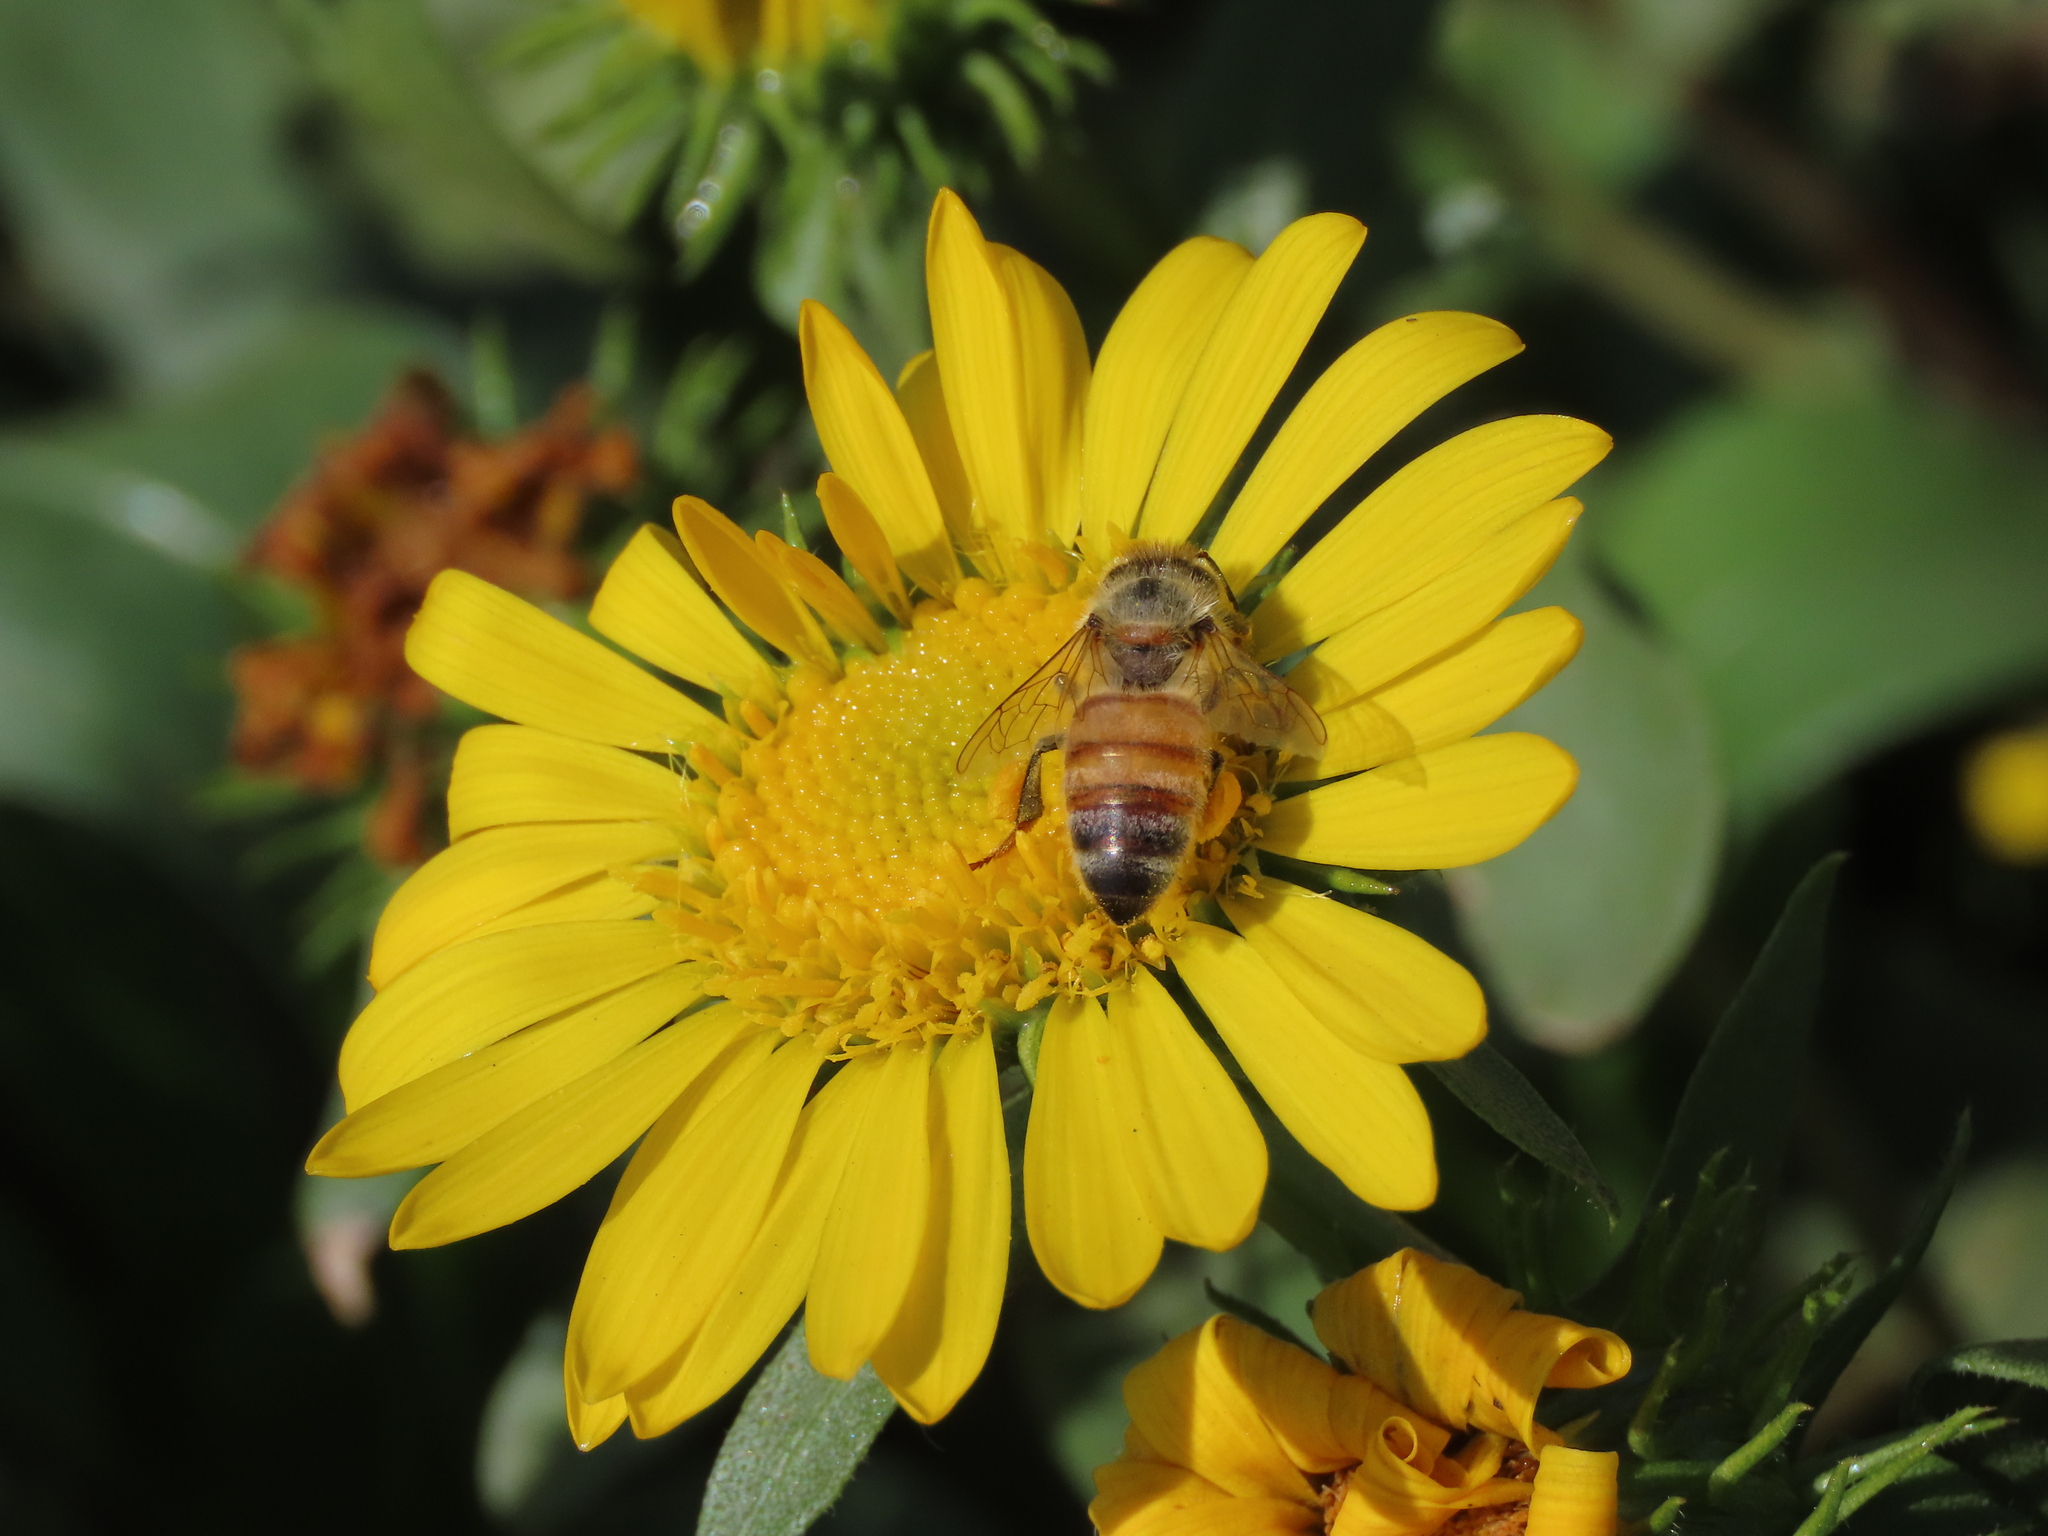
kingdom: Animalia
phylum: Arthropoda
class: Insecta
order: Hymenoptera
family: Apidae
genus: Apis
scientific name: Apis mellifera
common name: Honey bee
